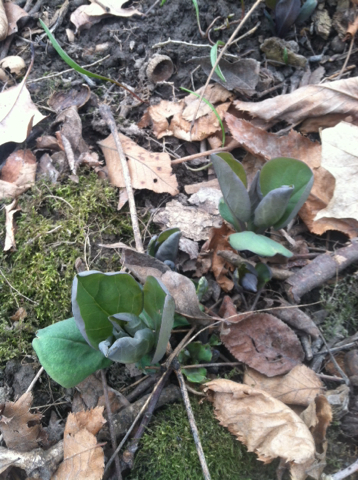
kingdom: Plantae
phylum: Tracheophyta
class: Magnoliopsida
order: Boraginales
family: Boraginaceae
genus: Mertensia
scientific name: Mertensia virginica
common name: Virginia bluebells
